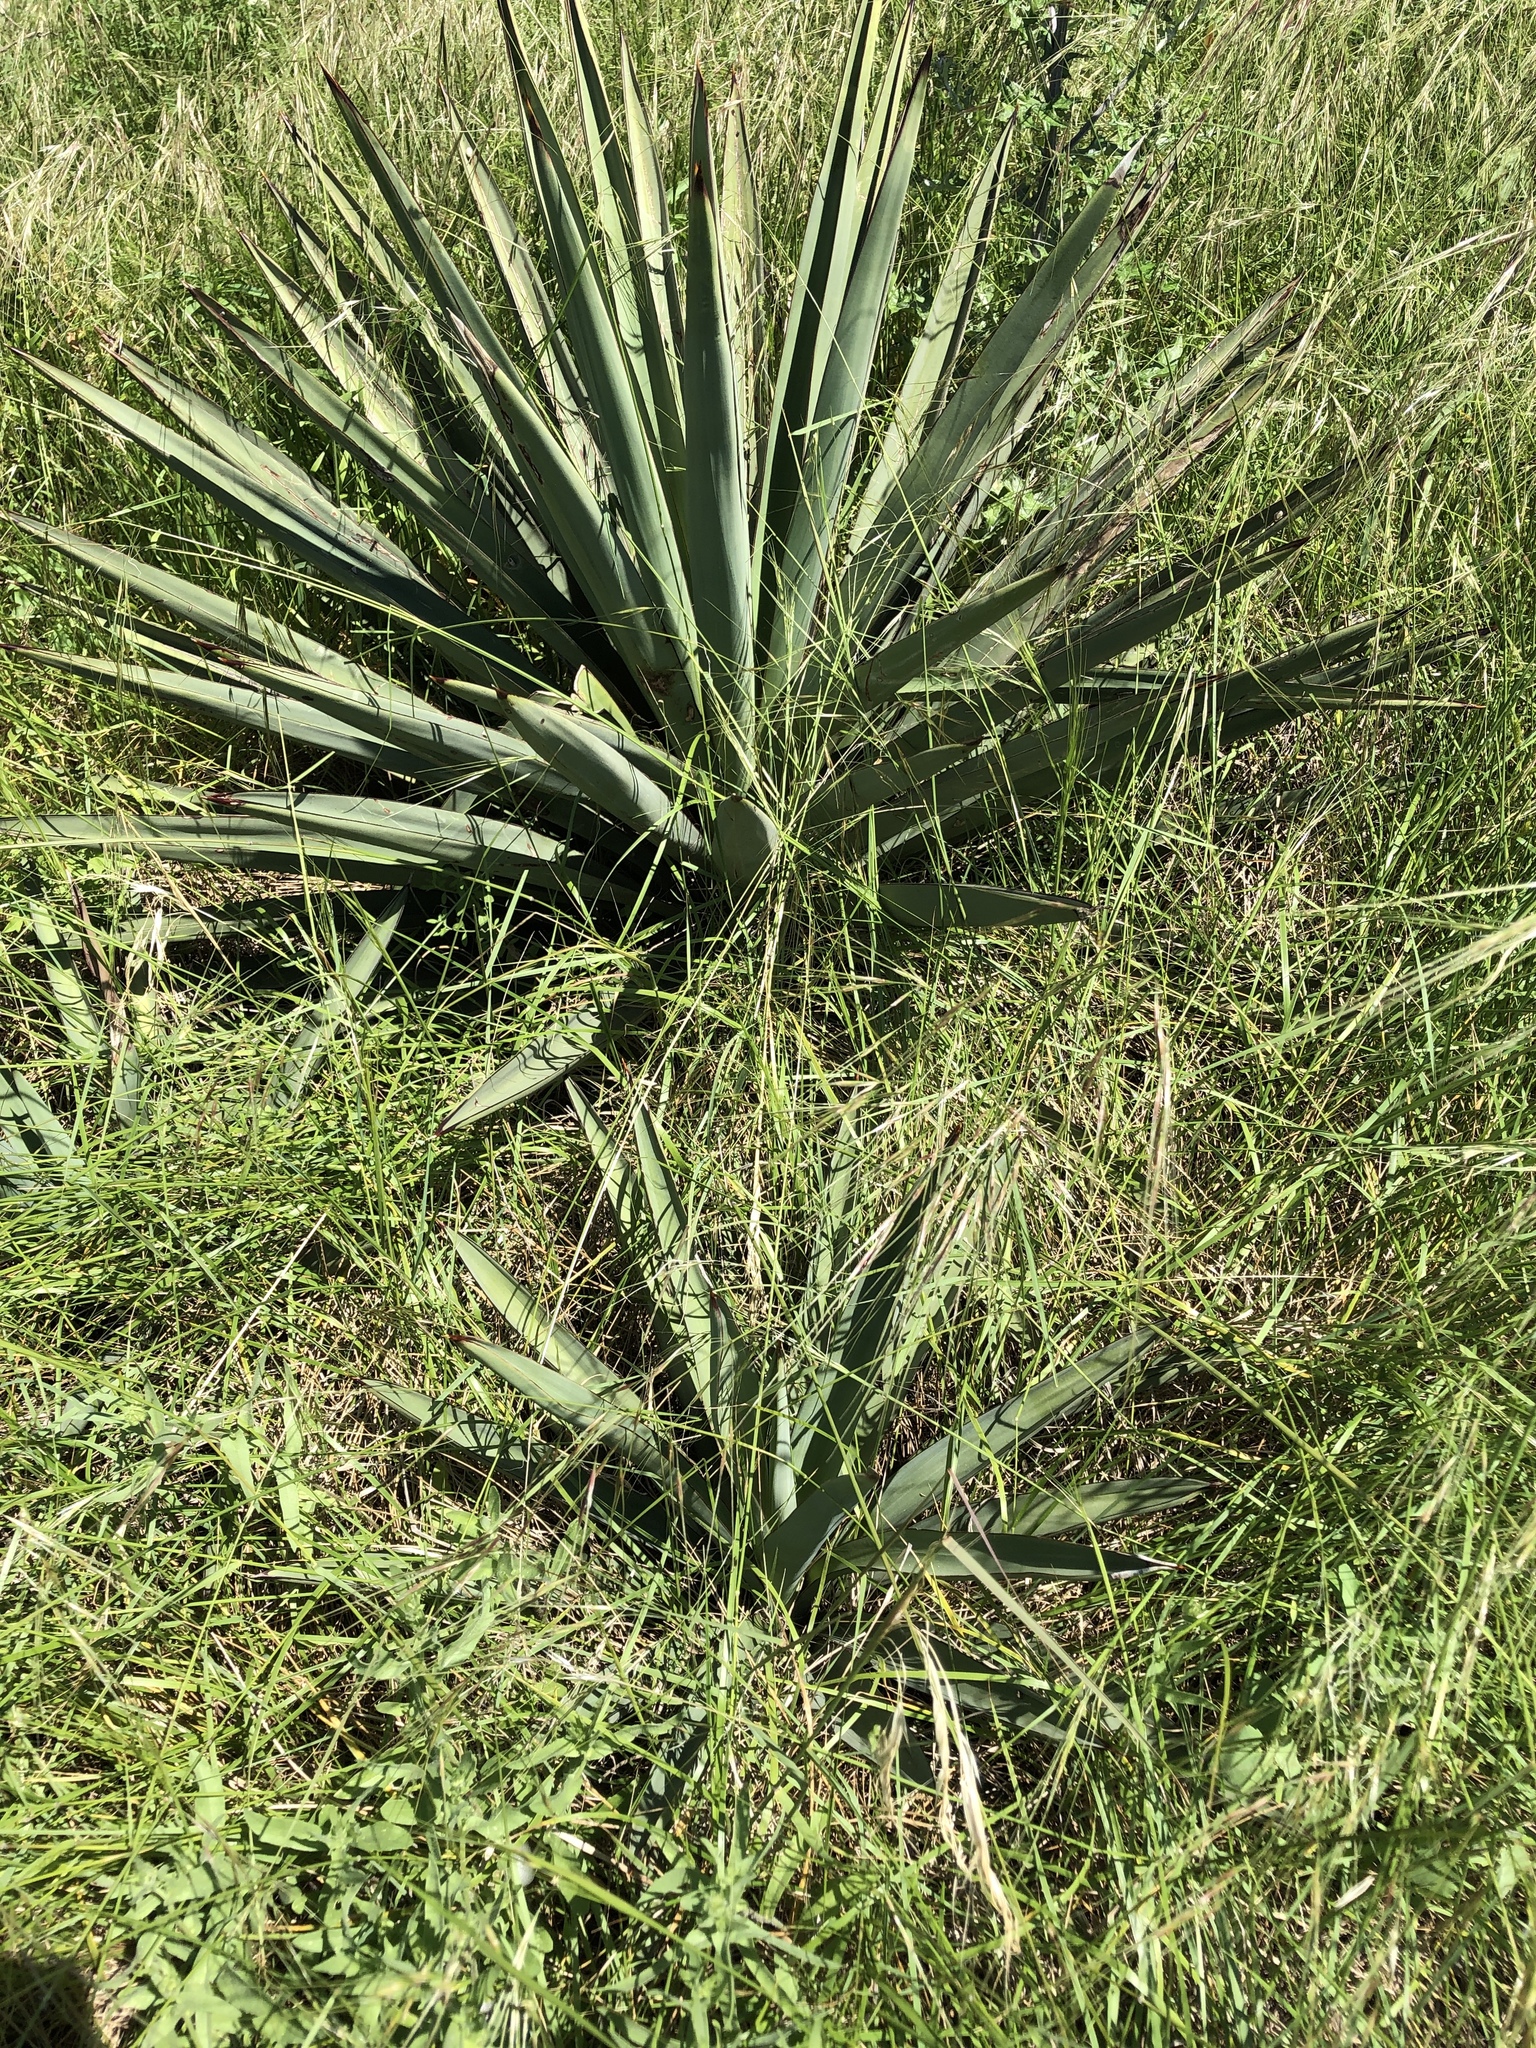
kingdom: Plantae
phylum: Tracheophyta
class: Liliopsida
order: Asparagales
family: Asparagaceae
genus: Yucca
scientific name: Yucca treculiana
